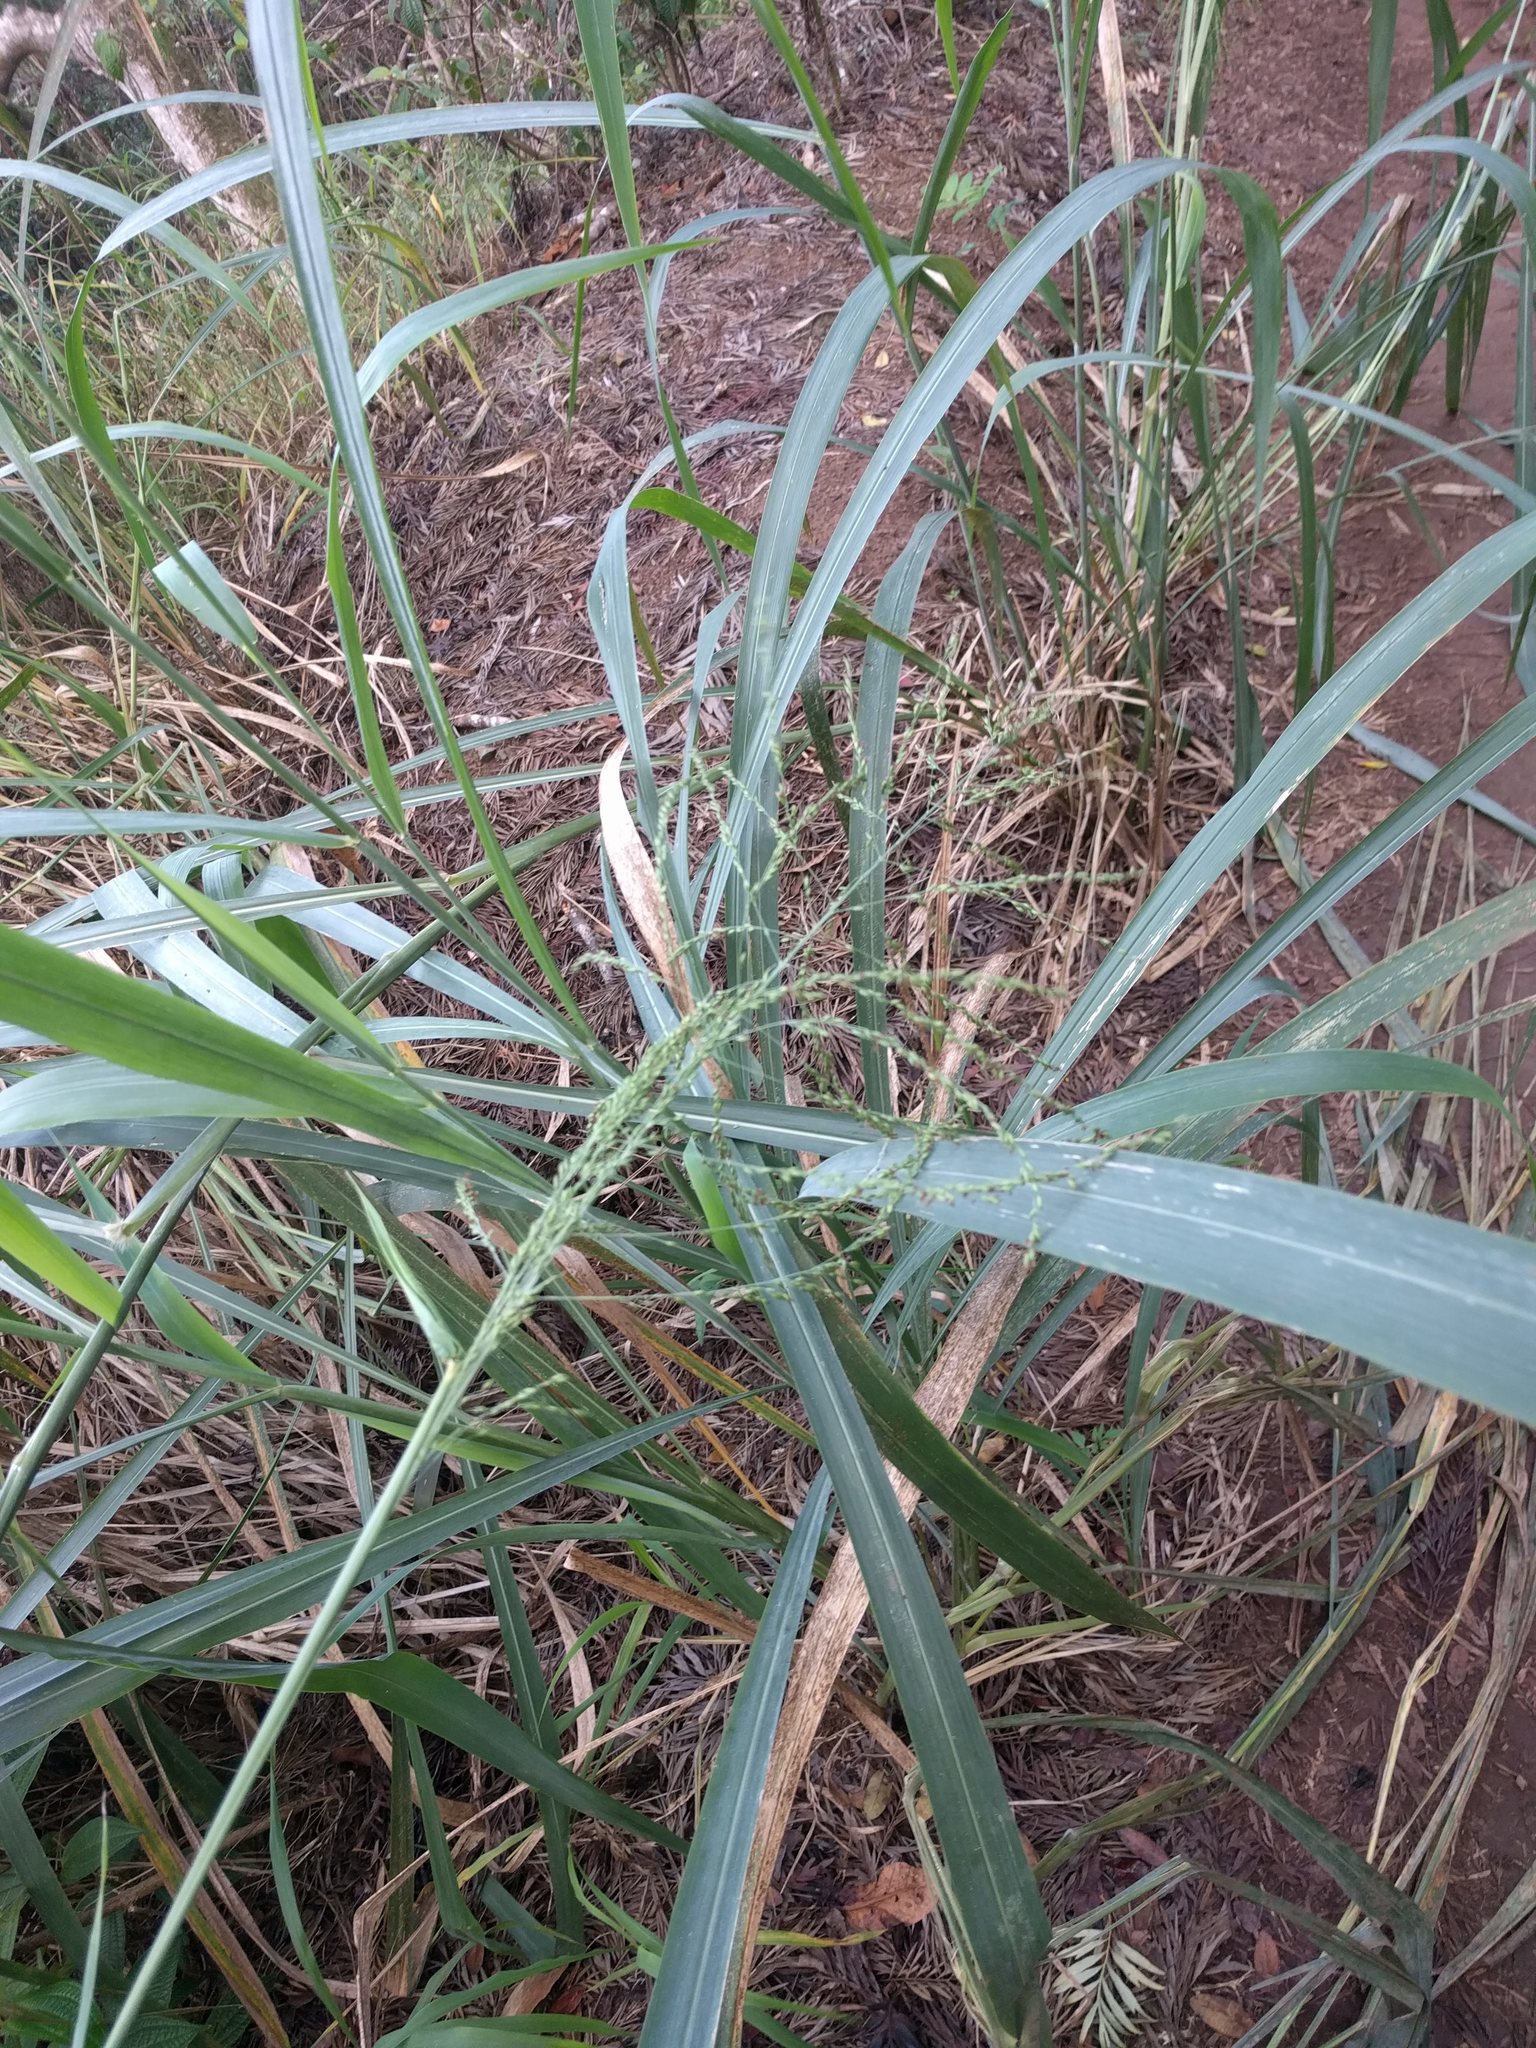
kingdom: Plantae
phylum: Tracheophyta
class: Liliopsida
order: Poales
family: Poaceae
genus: Megathyrsus
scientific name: Megathyrsus maximus
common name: Guineagrass
